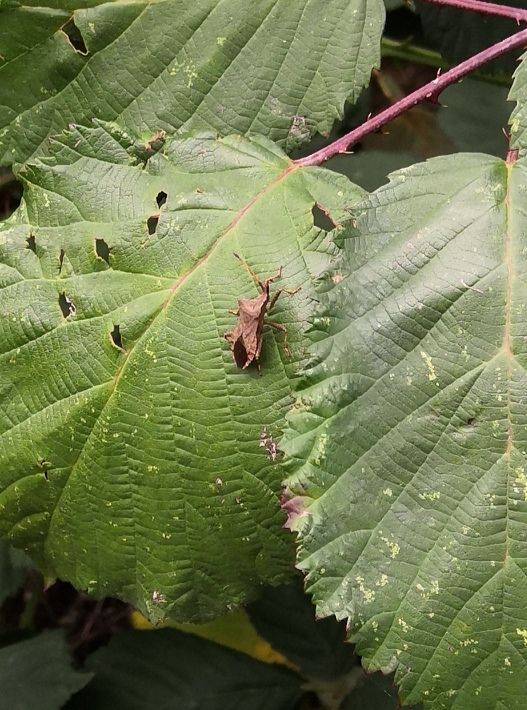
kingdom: Animalia
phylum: Arthropoda
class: Insecta
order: Hemiptera
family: Coreidae
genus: Coreus
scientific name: Coreus marginatus
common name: Dock bug
